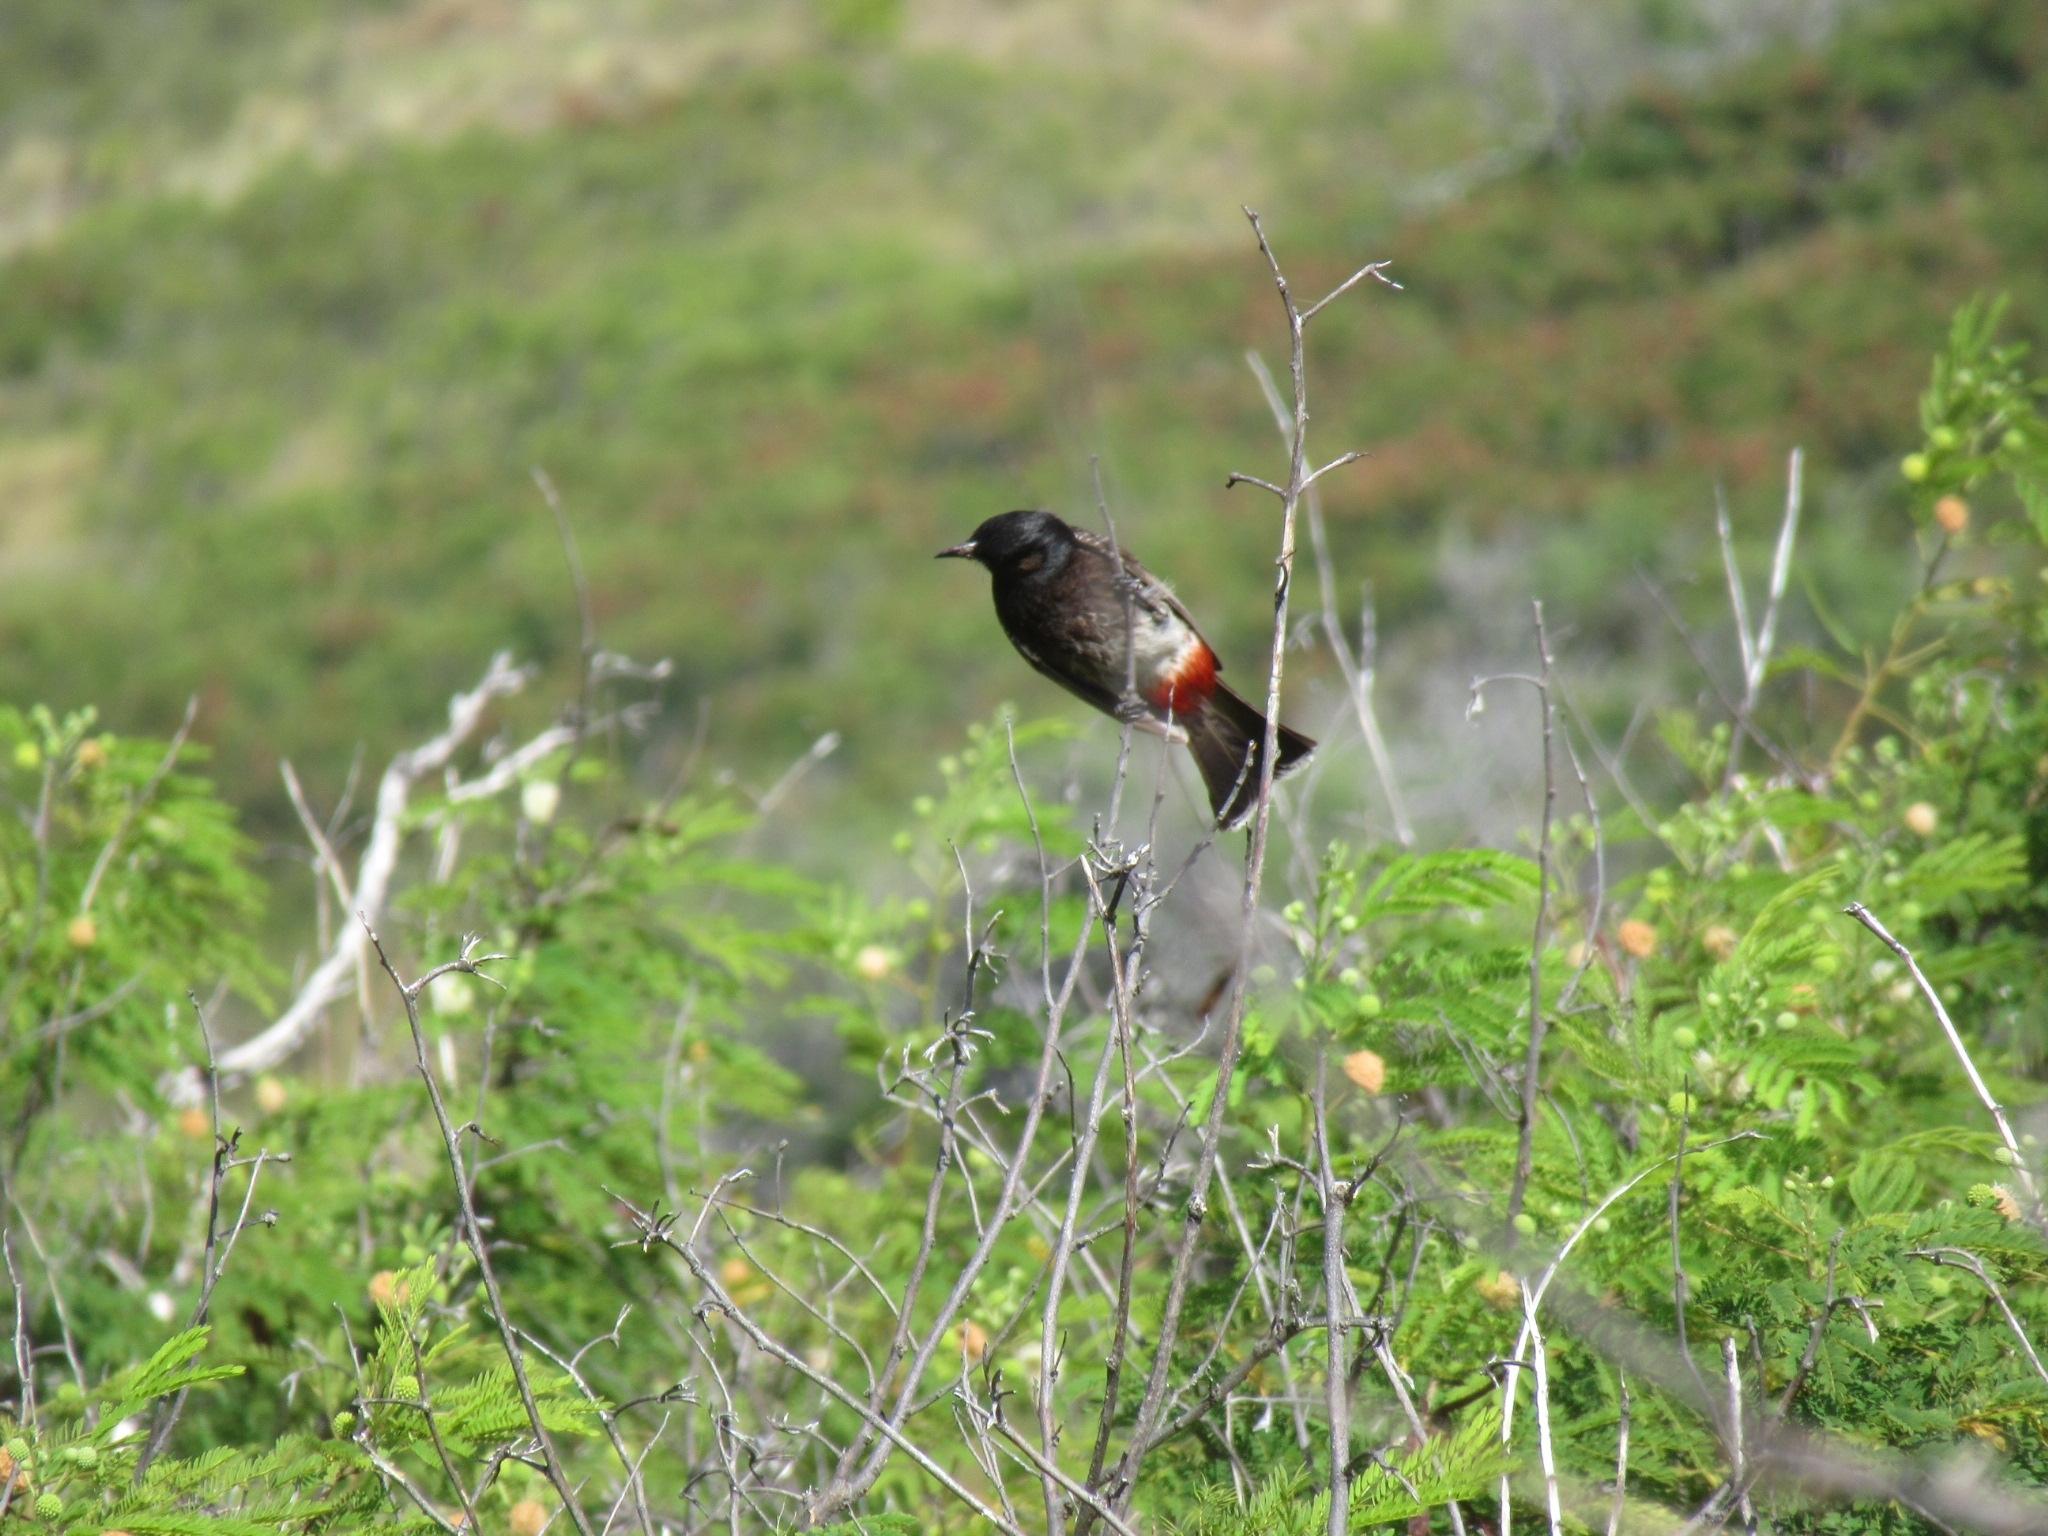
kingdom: Animalia
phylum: Chordata
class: Aves
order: Passeriformes
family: Pycnonotidae
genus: Pycnonotus
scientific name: Pycnonotus cafer
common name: Red-vented bulbul
